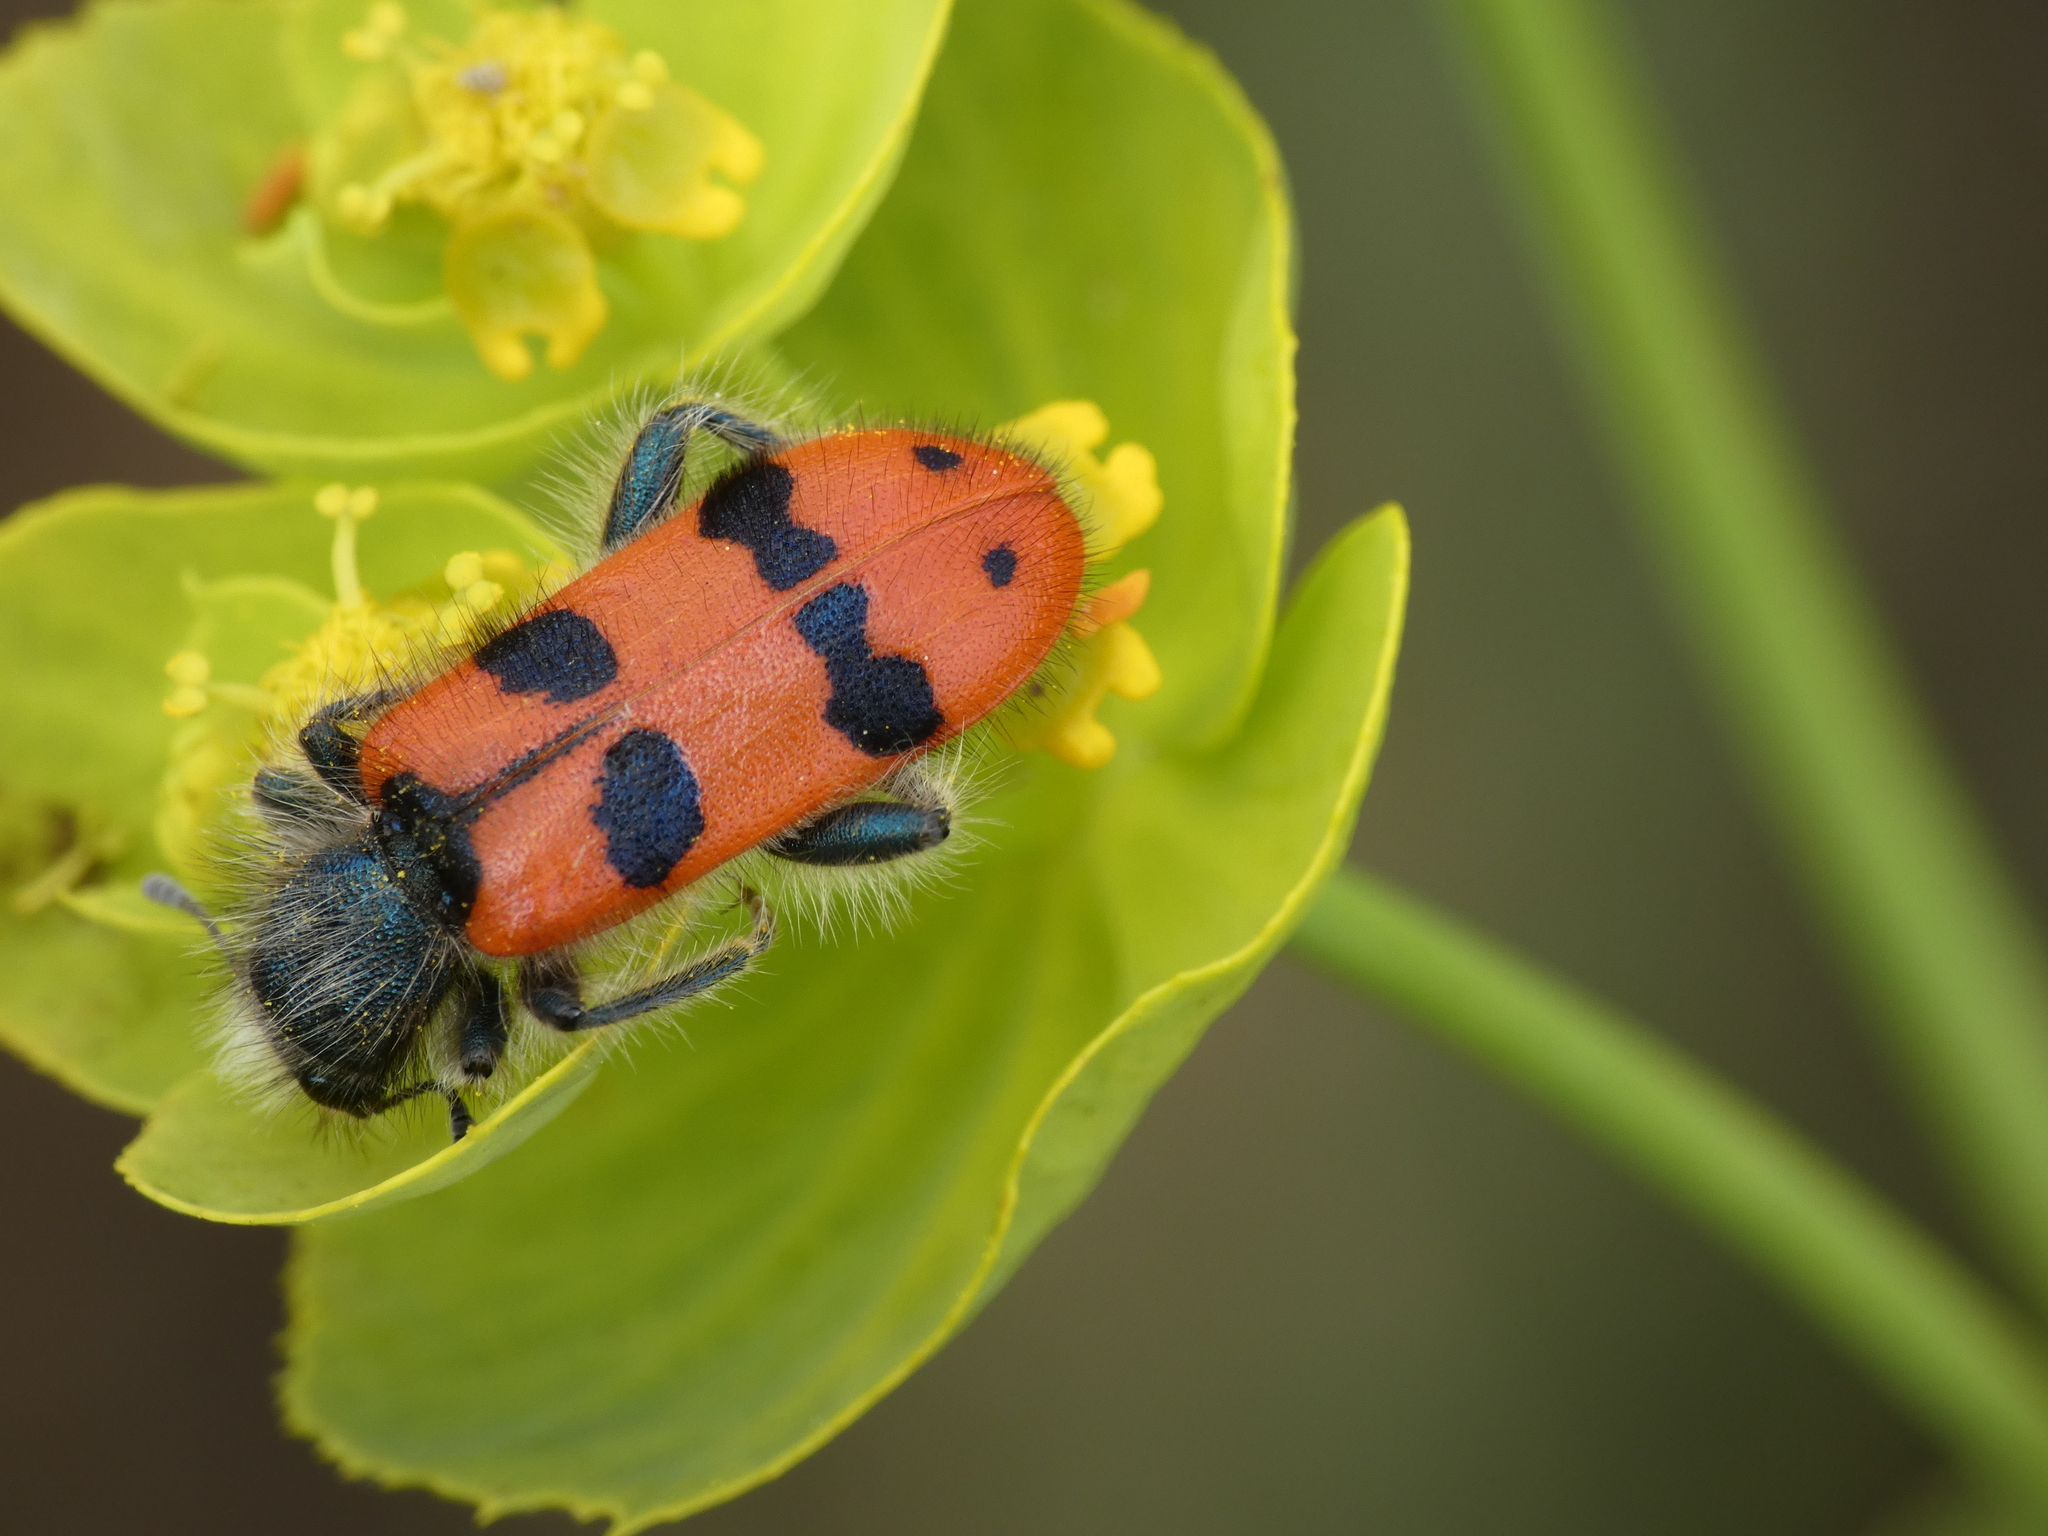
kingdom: Animalia
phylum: Arthropoda
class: Insecta
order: Coleoptera
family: Cleridae
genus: Trichodes
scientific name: Trichodes alvearius
